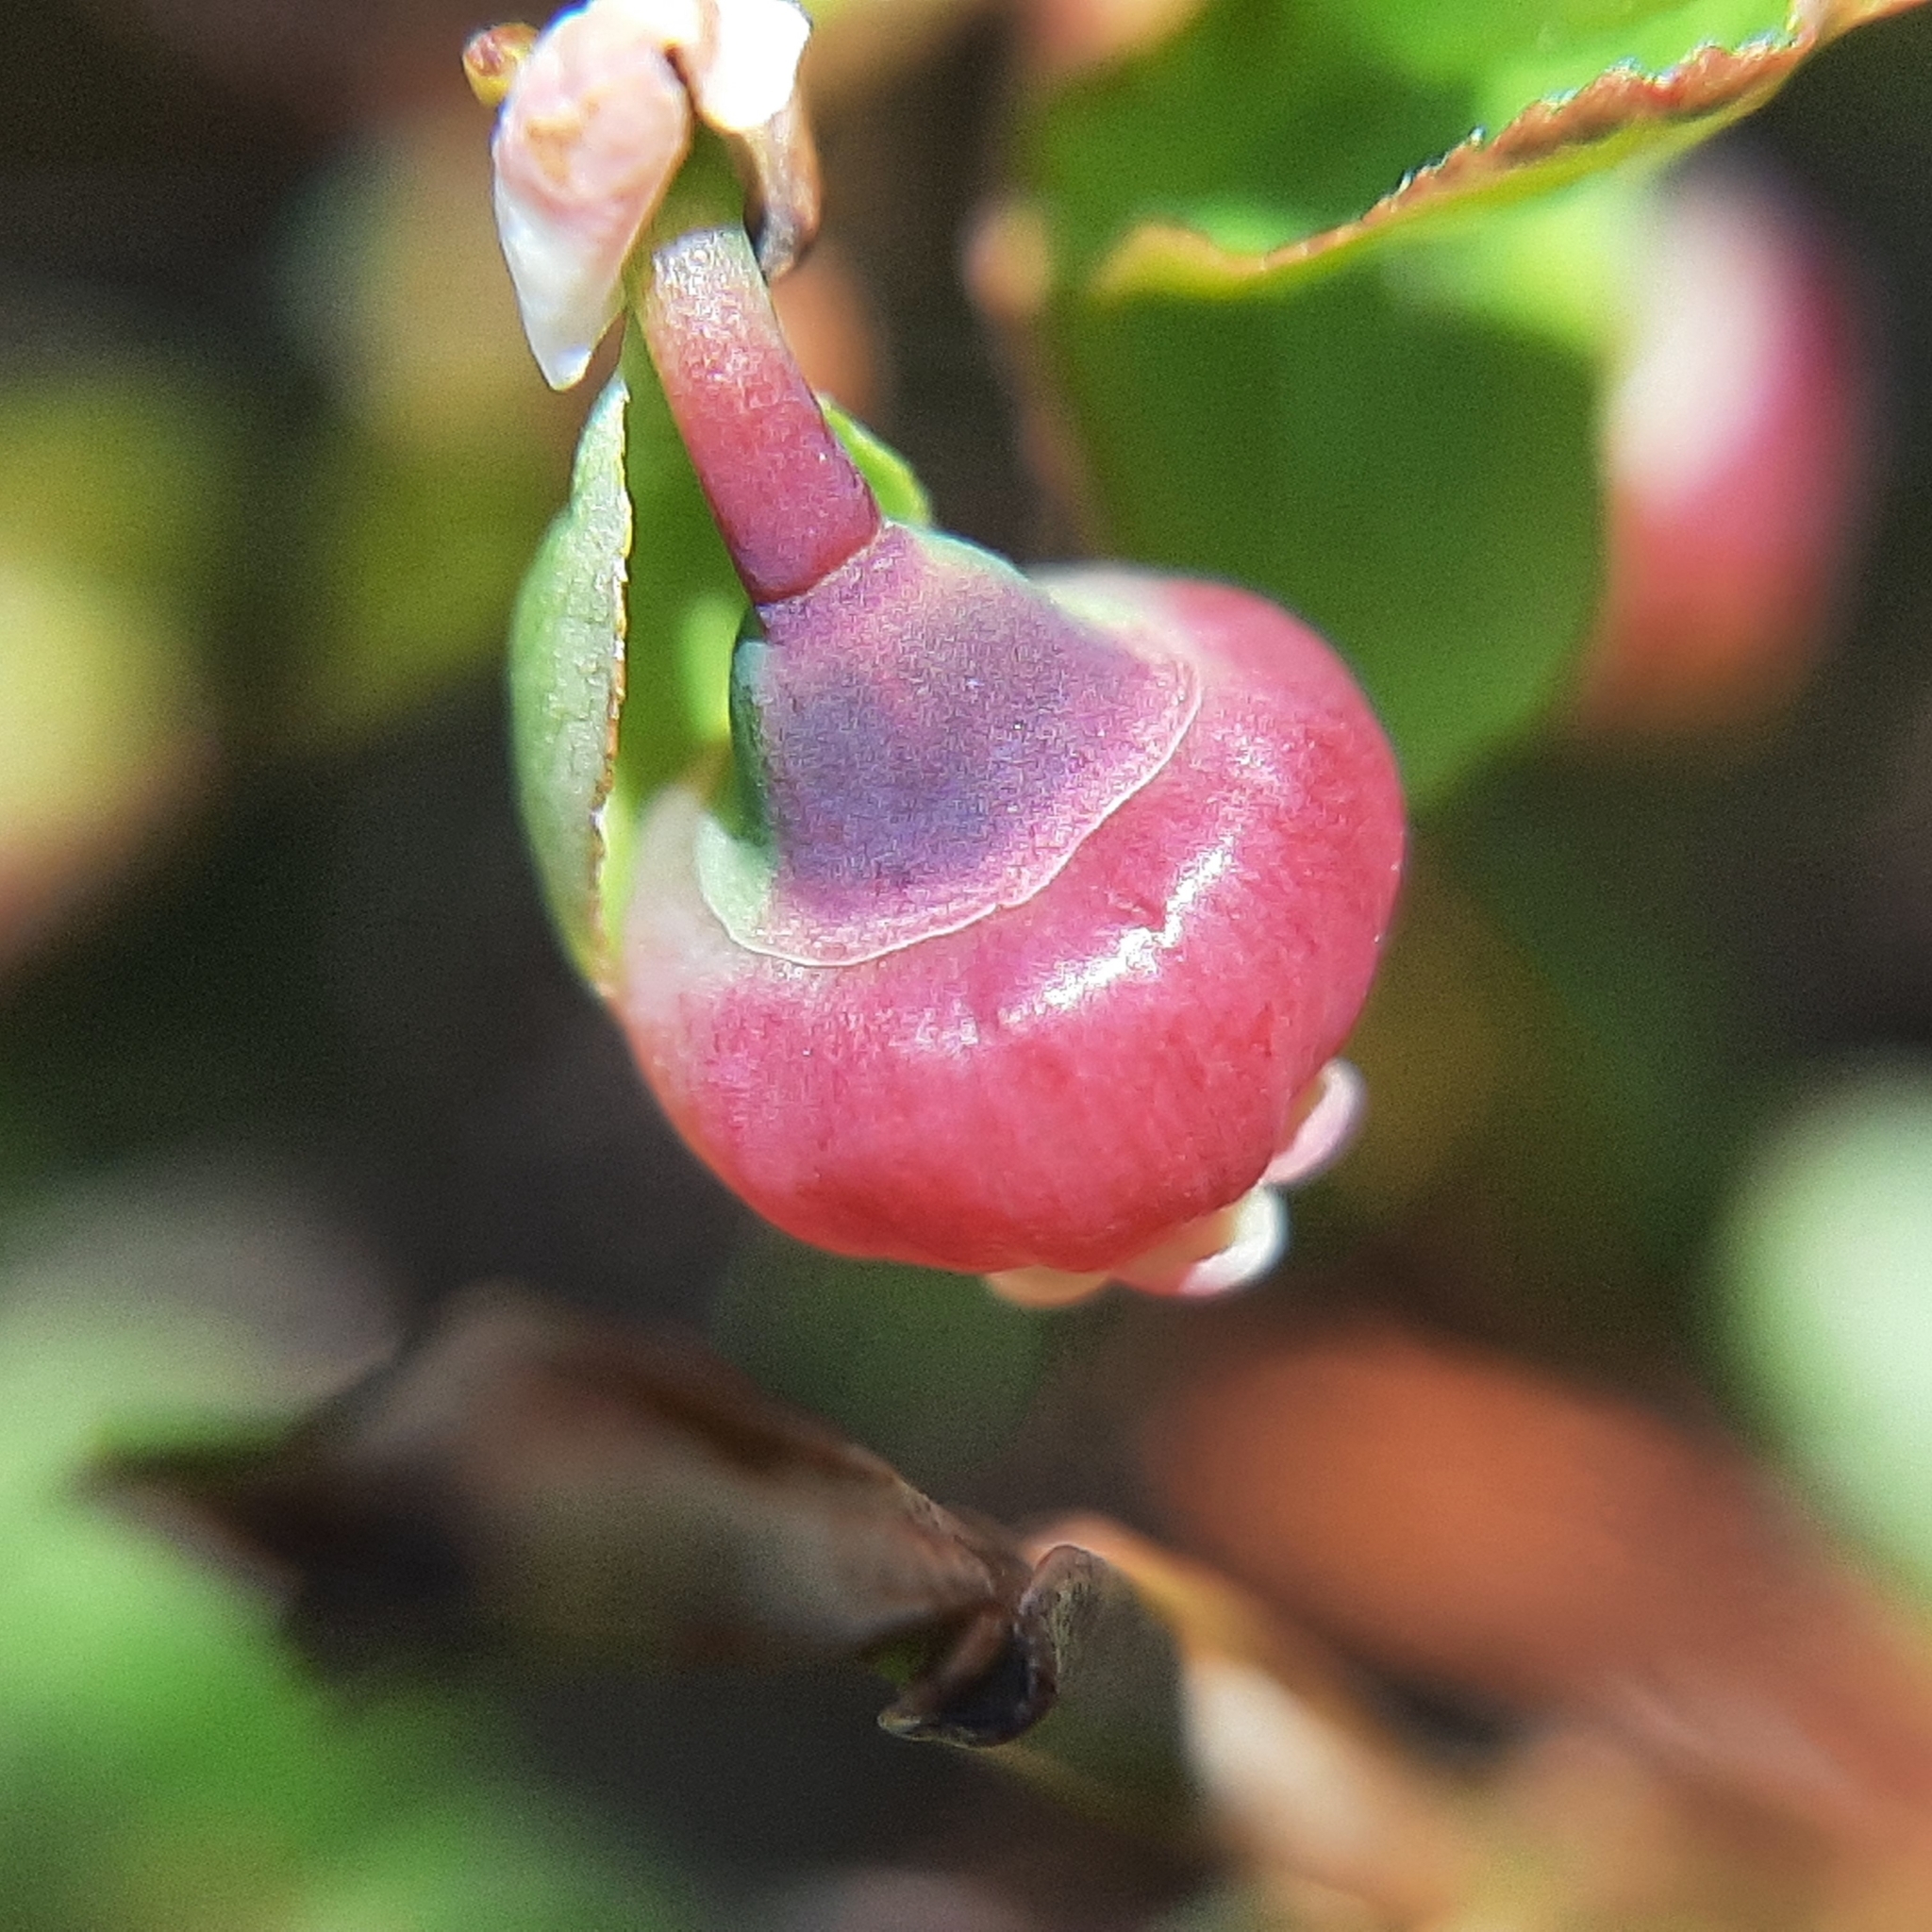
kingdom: Plantae
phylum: Tracheophyta
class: Magnoliopsida
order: Ericales
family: Ericaceae
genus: Vaccinium
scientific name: Vaccinium myrtillus
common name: Bilberry
